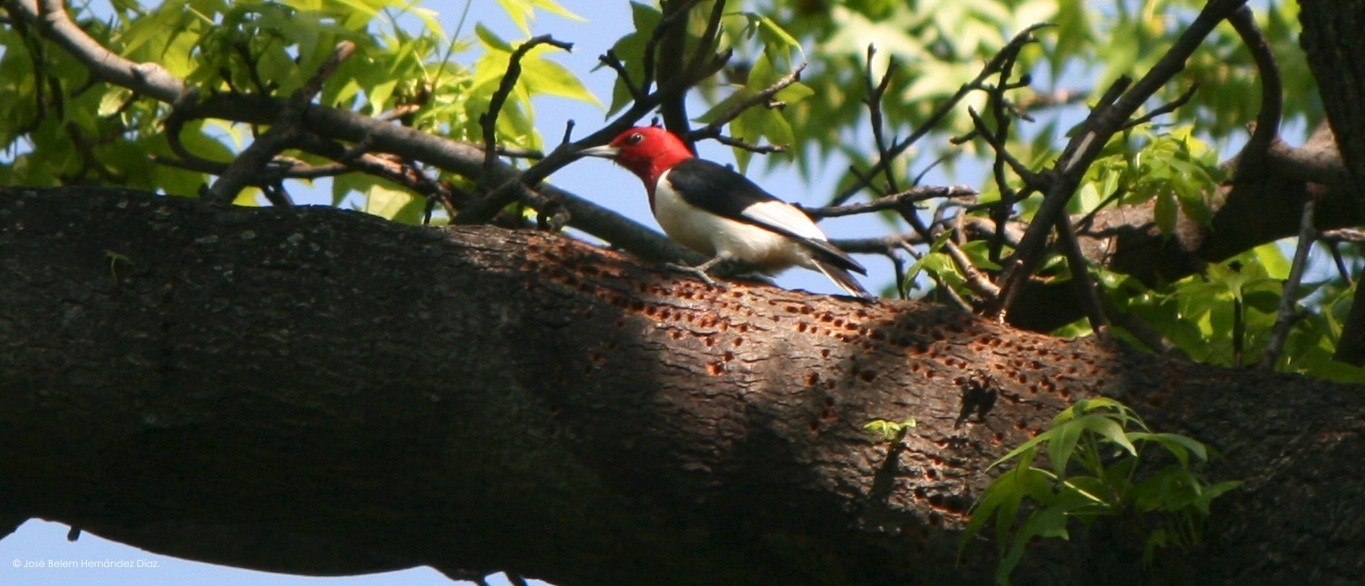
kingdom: Animalia
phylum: Chordata
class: Aves
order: Piciformes
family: Picidae
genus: Melanerpes
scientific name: Melanerpes erythrocephalus
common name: Red-headed woodpecker
